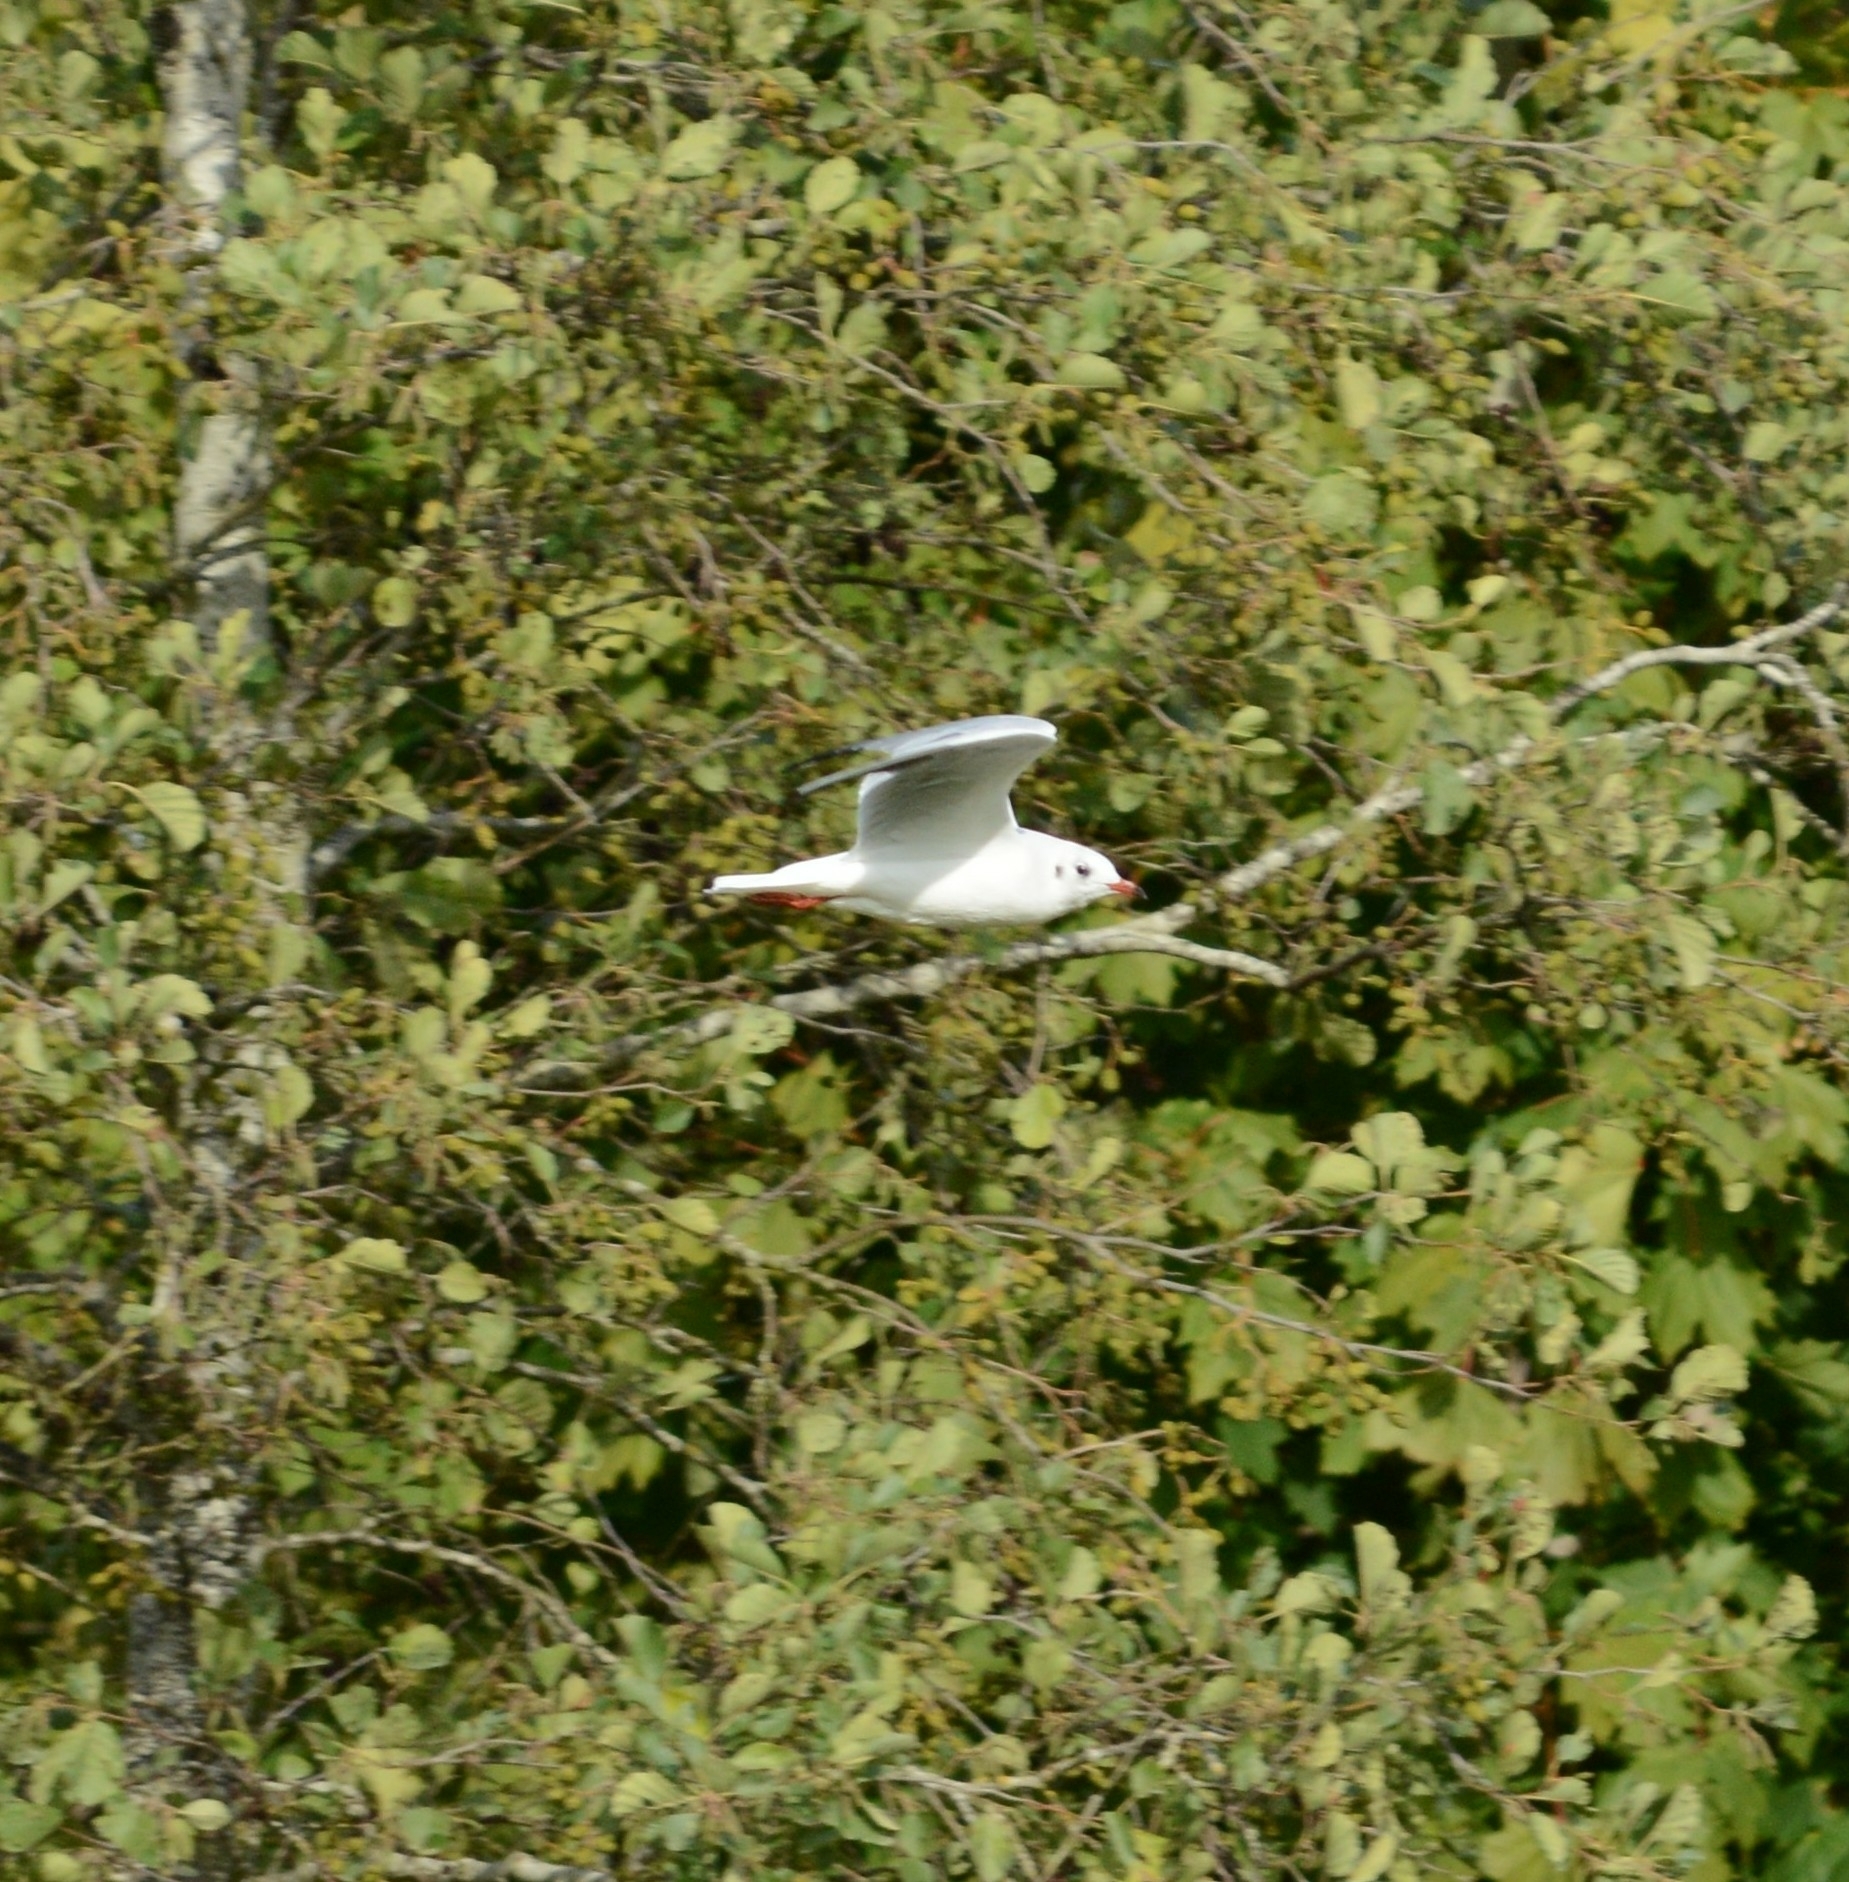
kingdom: Animalia
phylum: Chordata
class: Aves
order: Charadriiformes
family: Laridae
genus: Chroicocephalus
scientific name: Chroicocephalus ridibundus
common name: Black-headed gull
